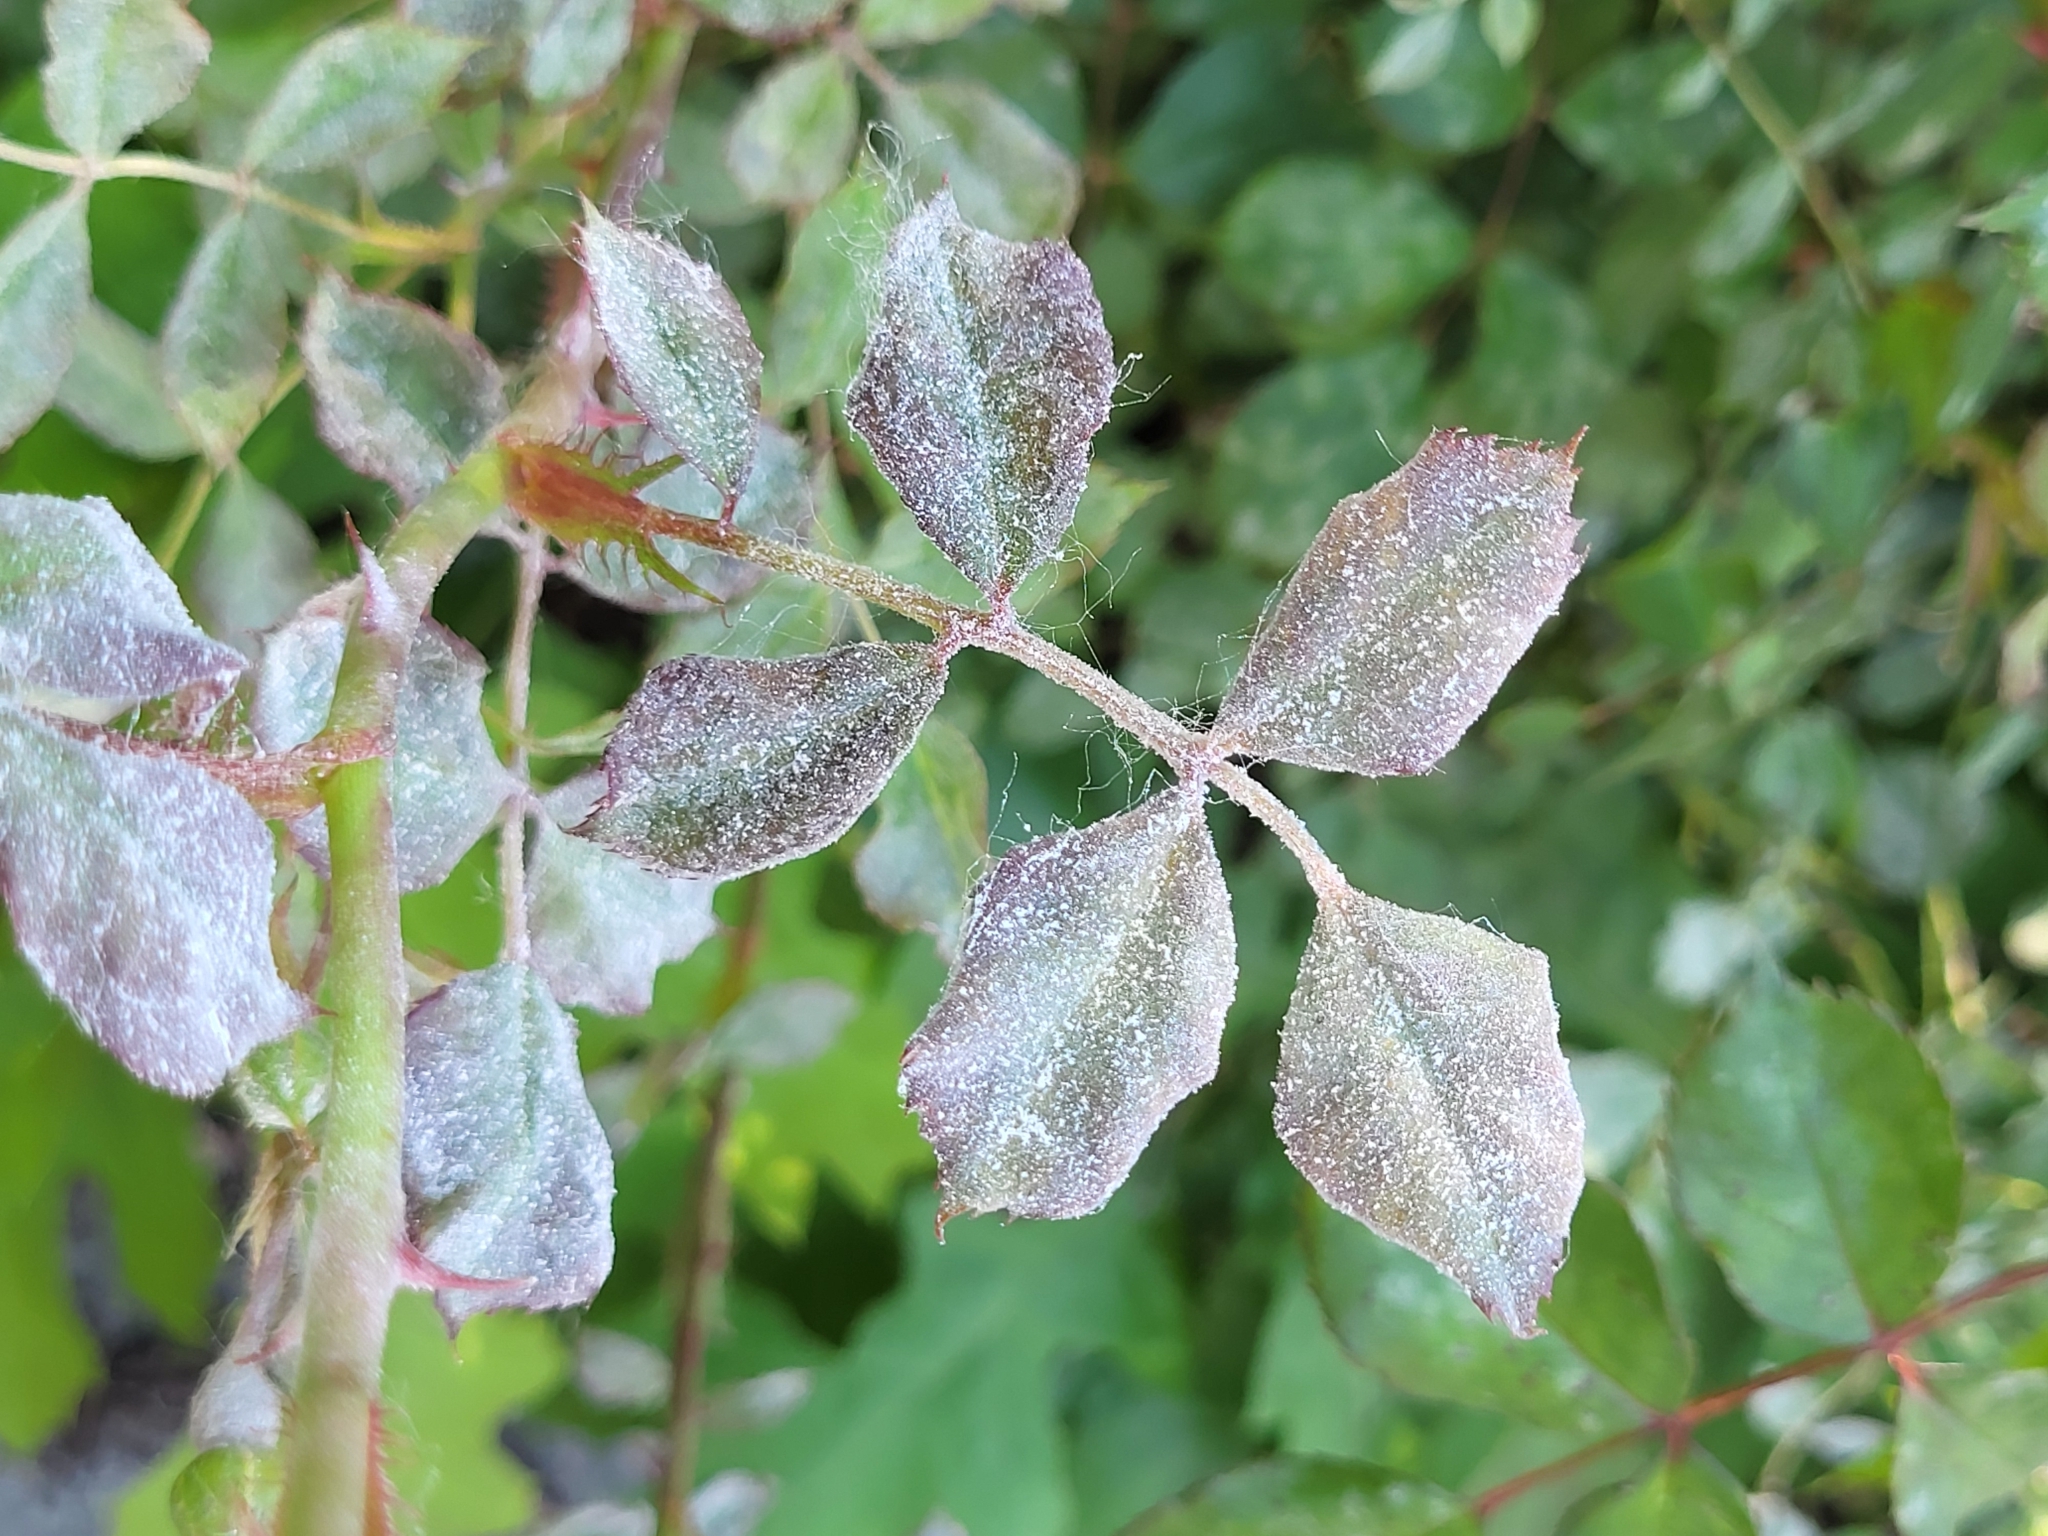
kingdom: Fungi
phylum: Ascomycota
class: Leotiomycetes
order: Helotiales
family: Erysiphaceae
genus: Podosphaera
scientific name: Podosphaera pannosa
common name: Rose mildew
